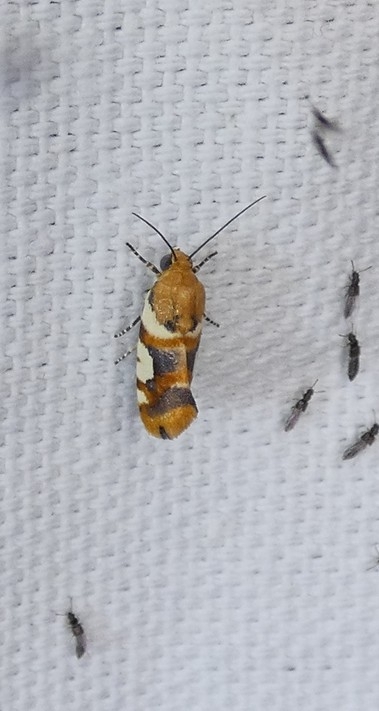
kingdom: Animalia
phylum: Arthropoda
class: Insecta
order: Lepidoptera
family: Noctuidae
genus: Acontia
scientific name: Acontia dama
